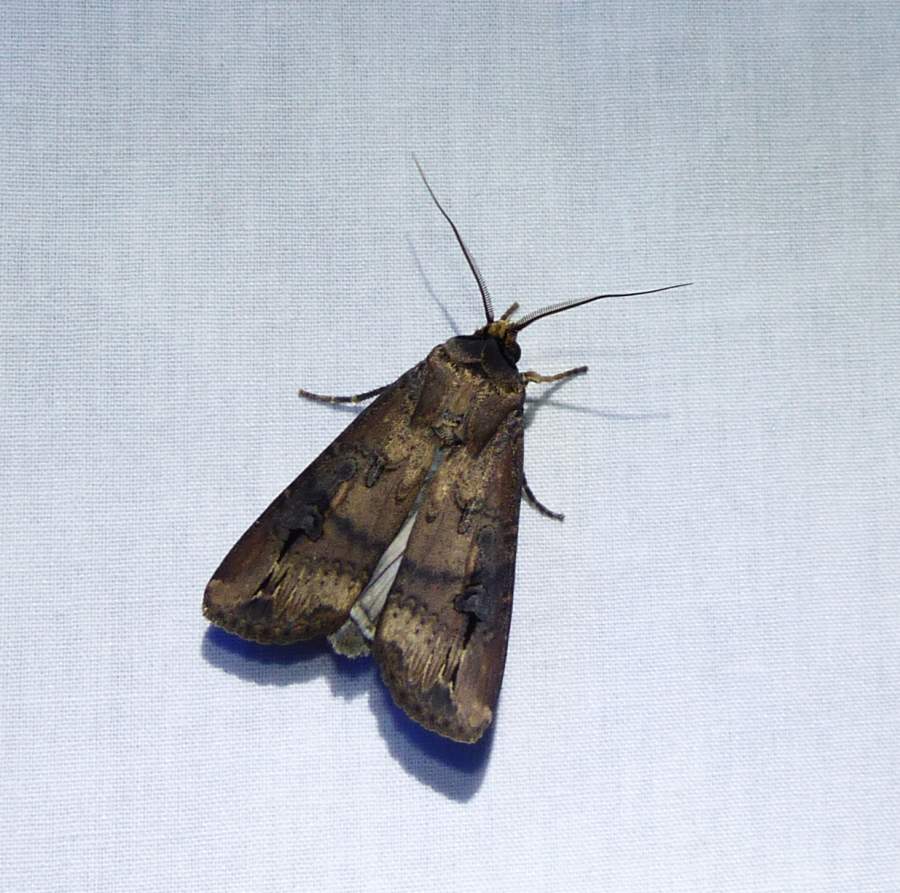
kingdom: Animalia
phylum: Arthropoda
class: Insecta
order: Lepidoptera
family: Noctuidae
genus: Agrotis
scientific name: Agrotis ipsilon
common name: Dark sword-grass
